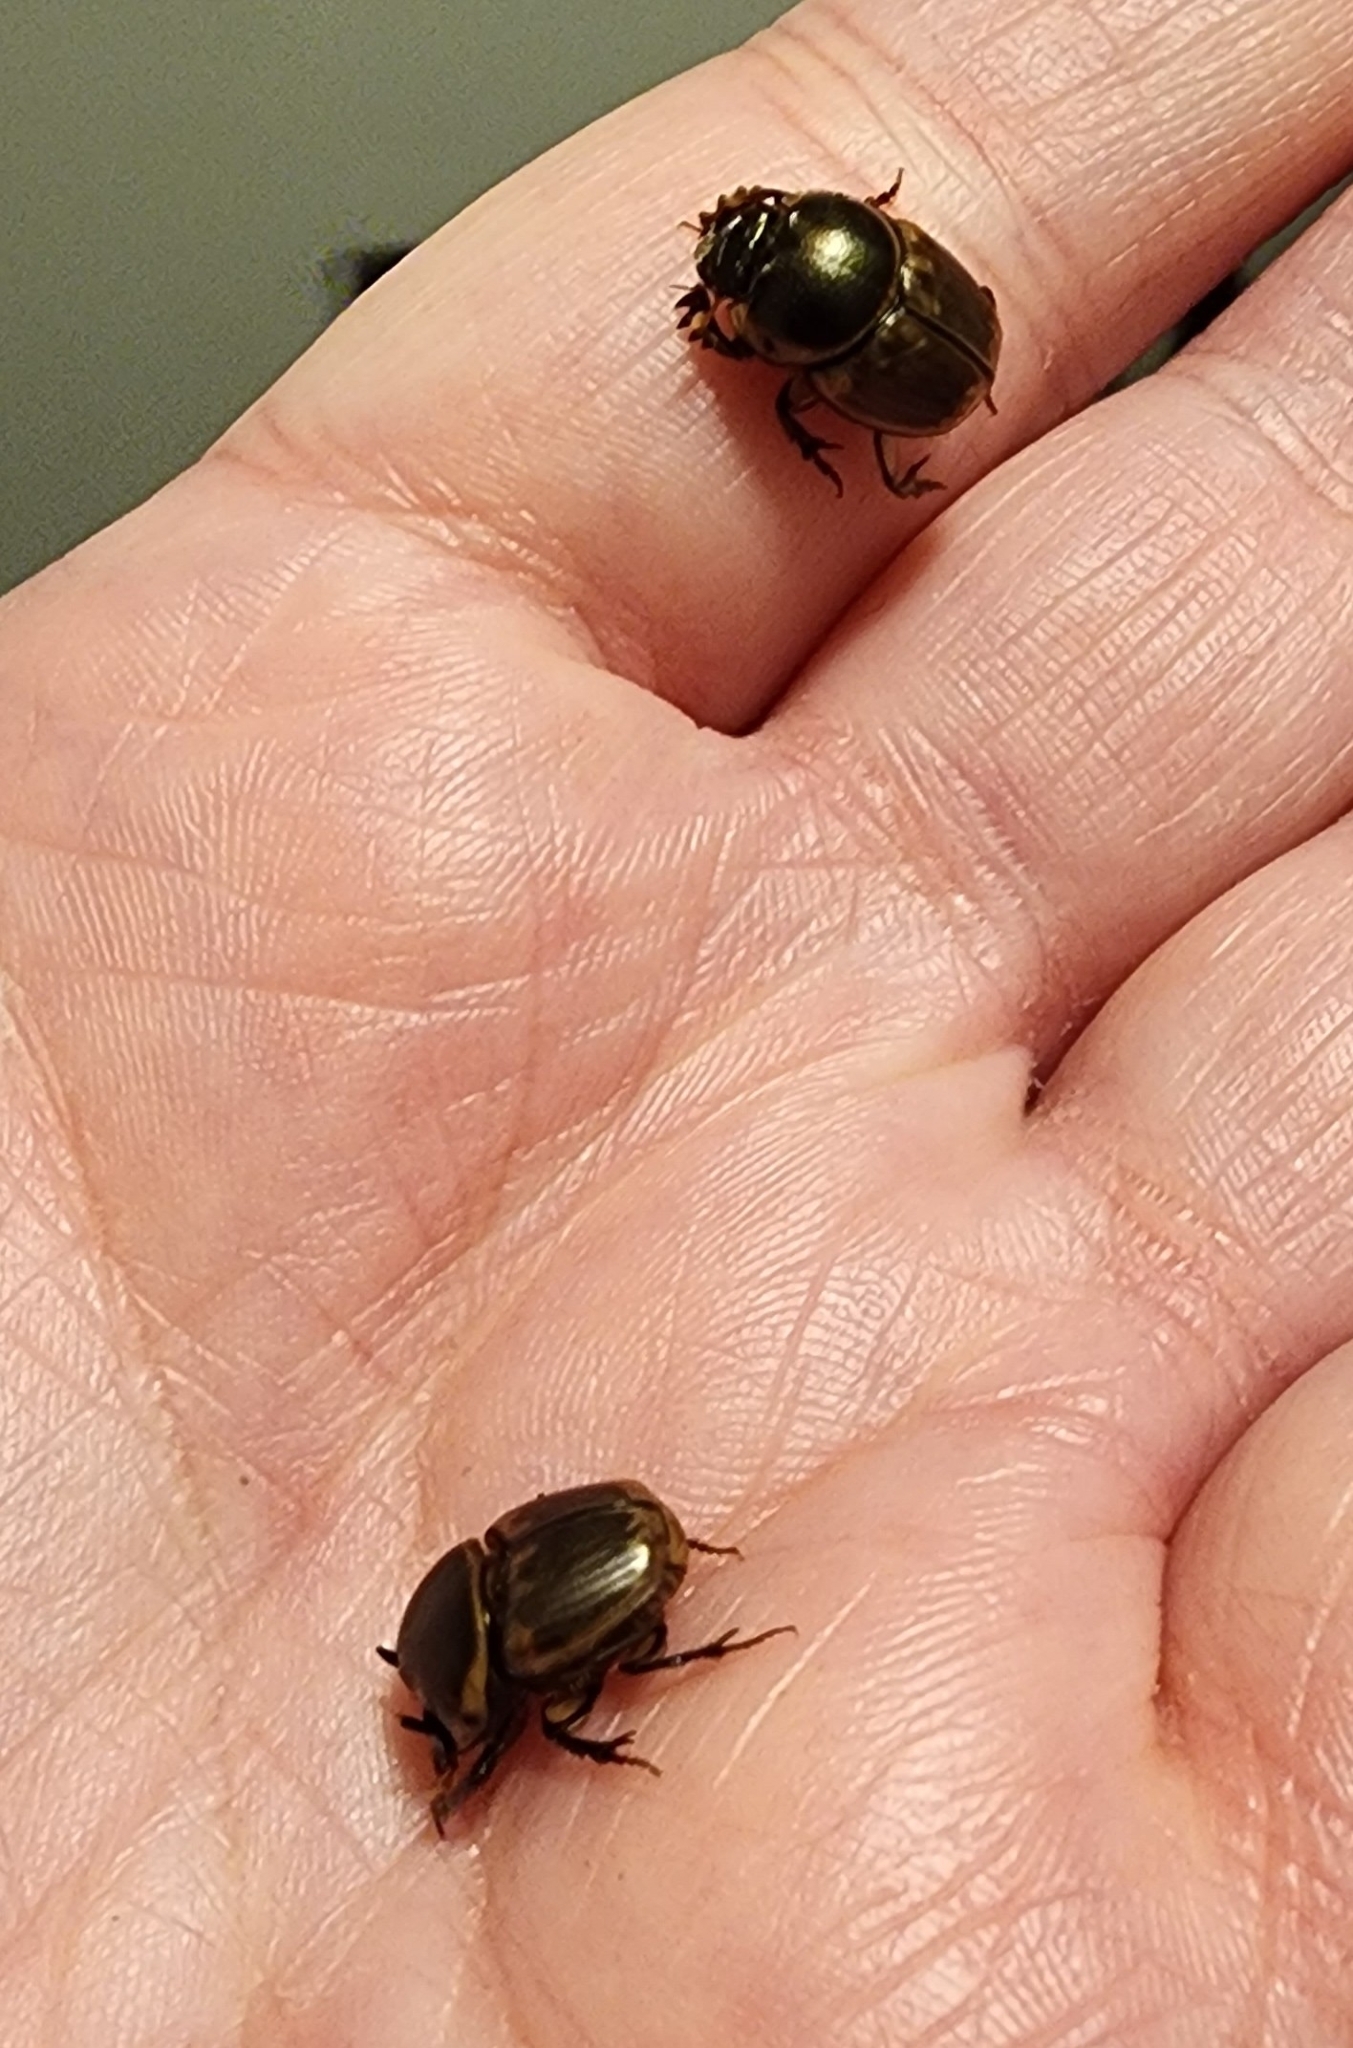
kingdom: Animalia
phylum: Arthropoda
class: Insecta
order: Coleoptera
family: Scarabaeidae
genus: Digitonthophagus
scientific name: Digitonthophagus gazella
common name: Brown dung beetle
